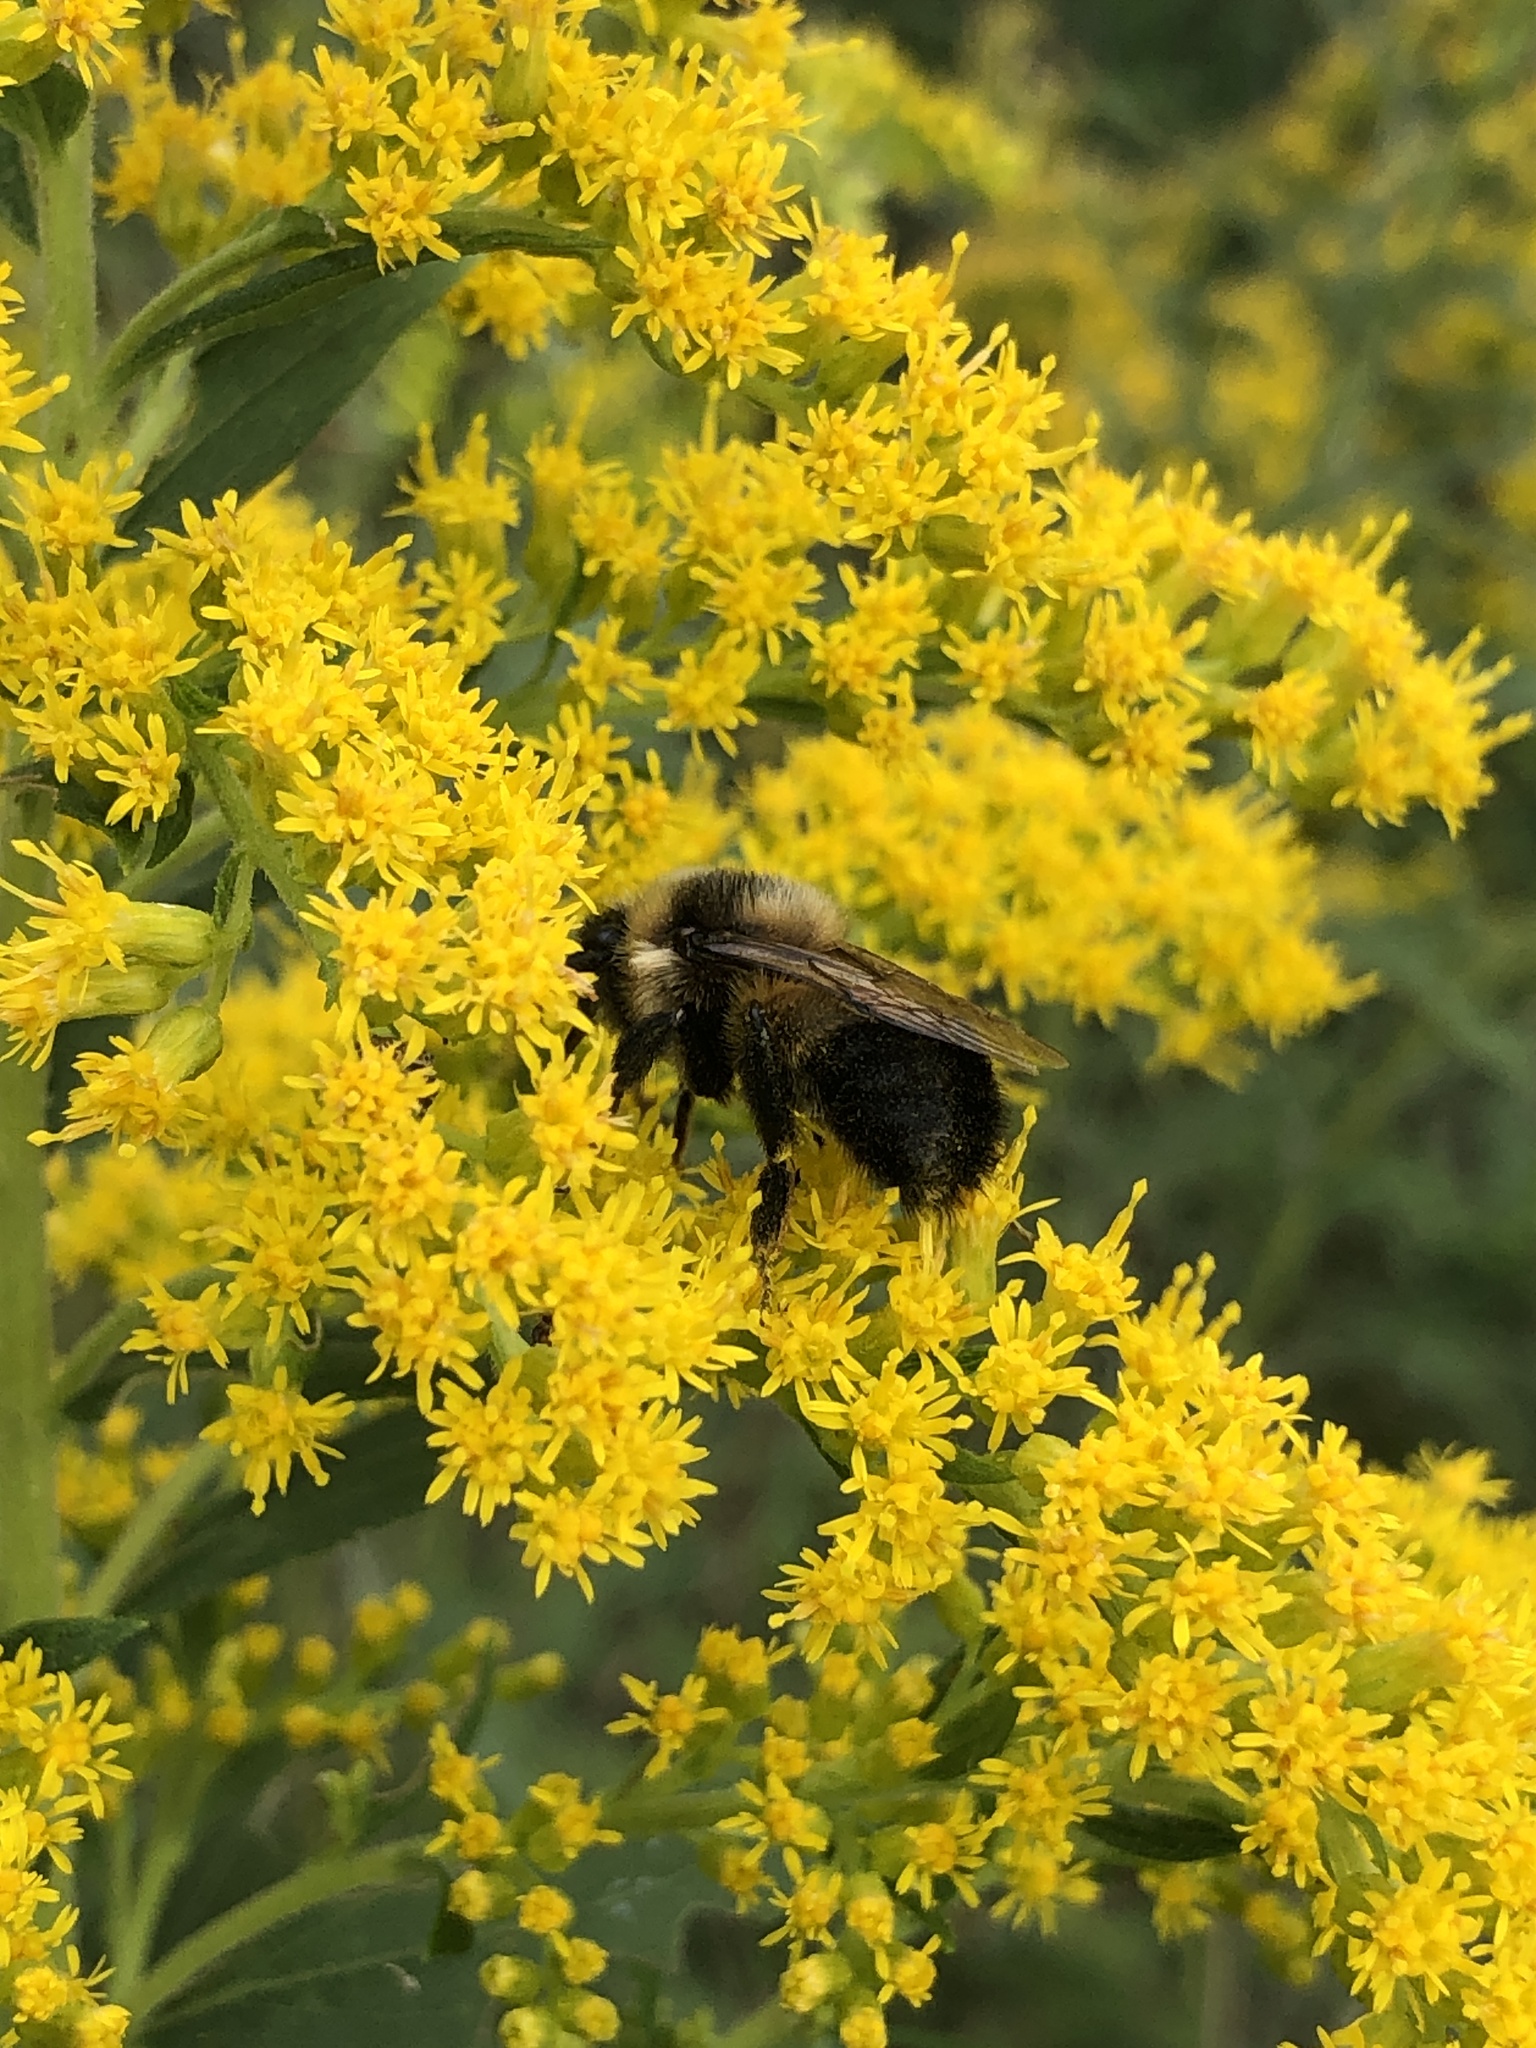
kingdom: Animalia
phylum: Arthropoda
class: Insecta
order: Hymenoptera
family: Apidae
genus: Bombus
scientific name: Bombus rufocinctus
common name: Red-belted bumble bee
